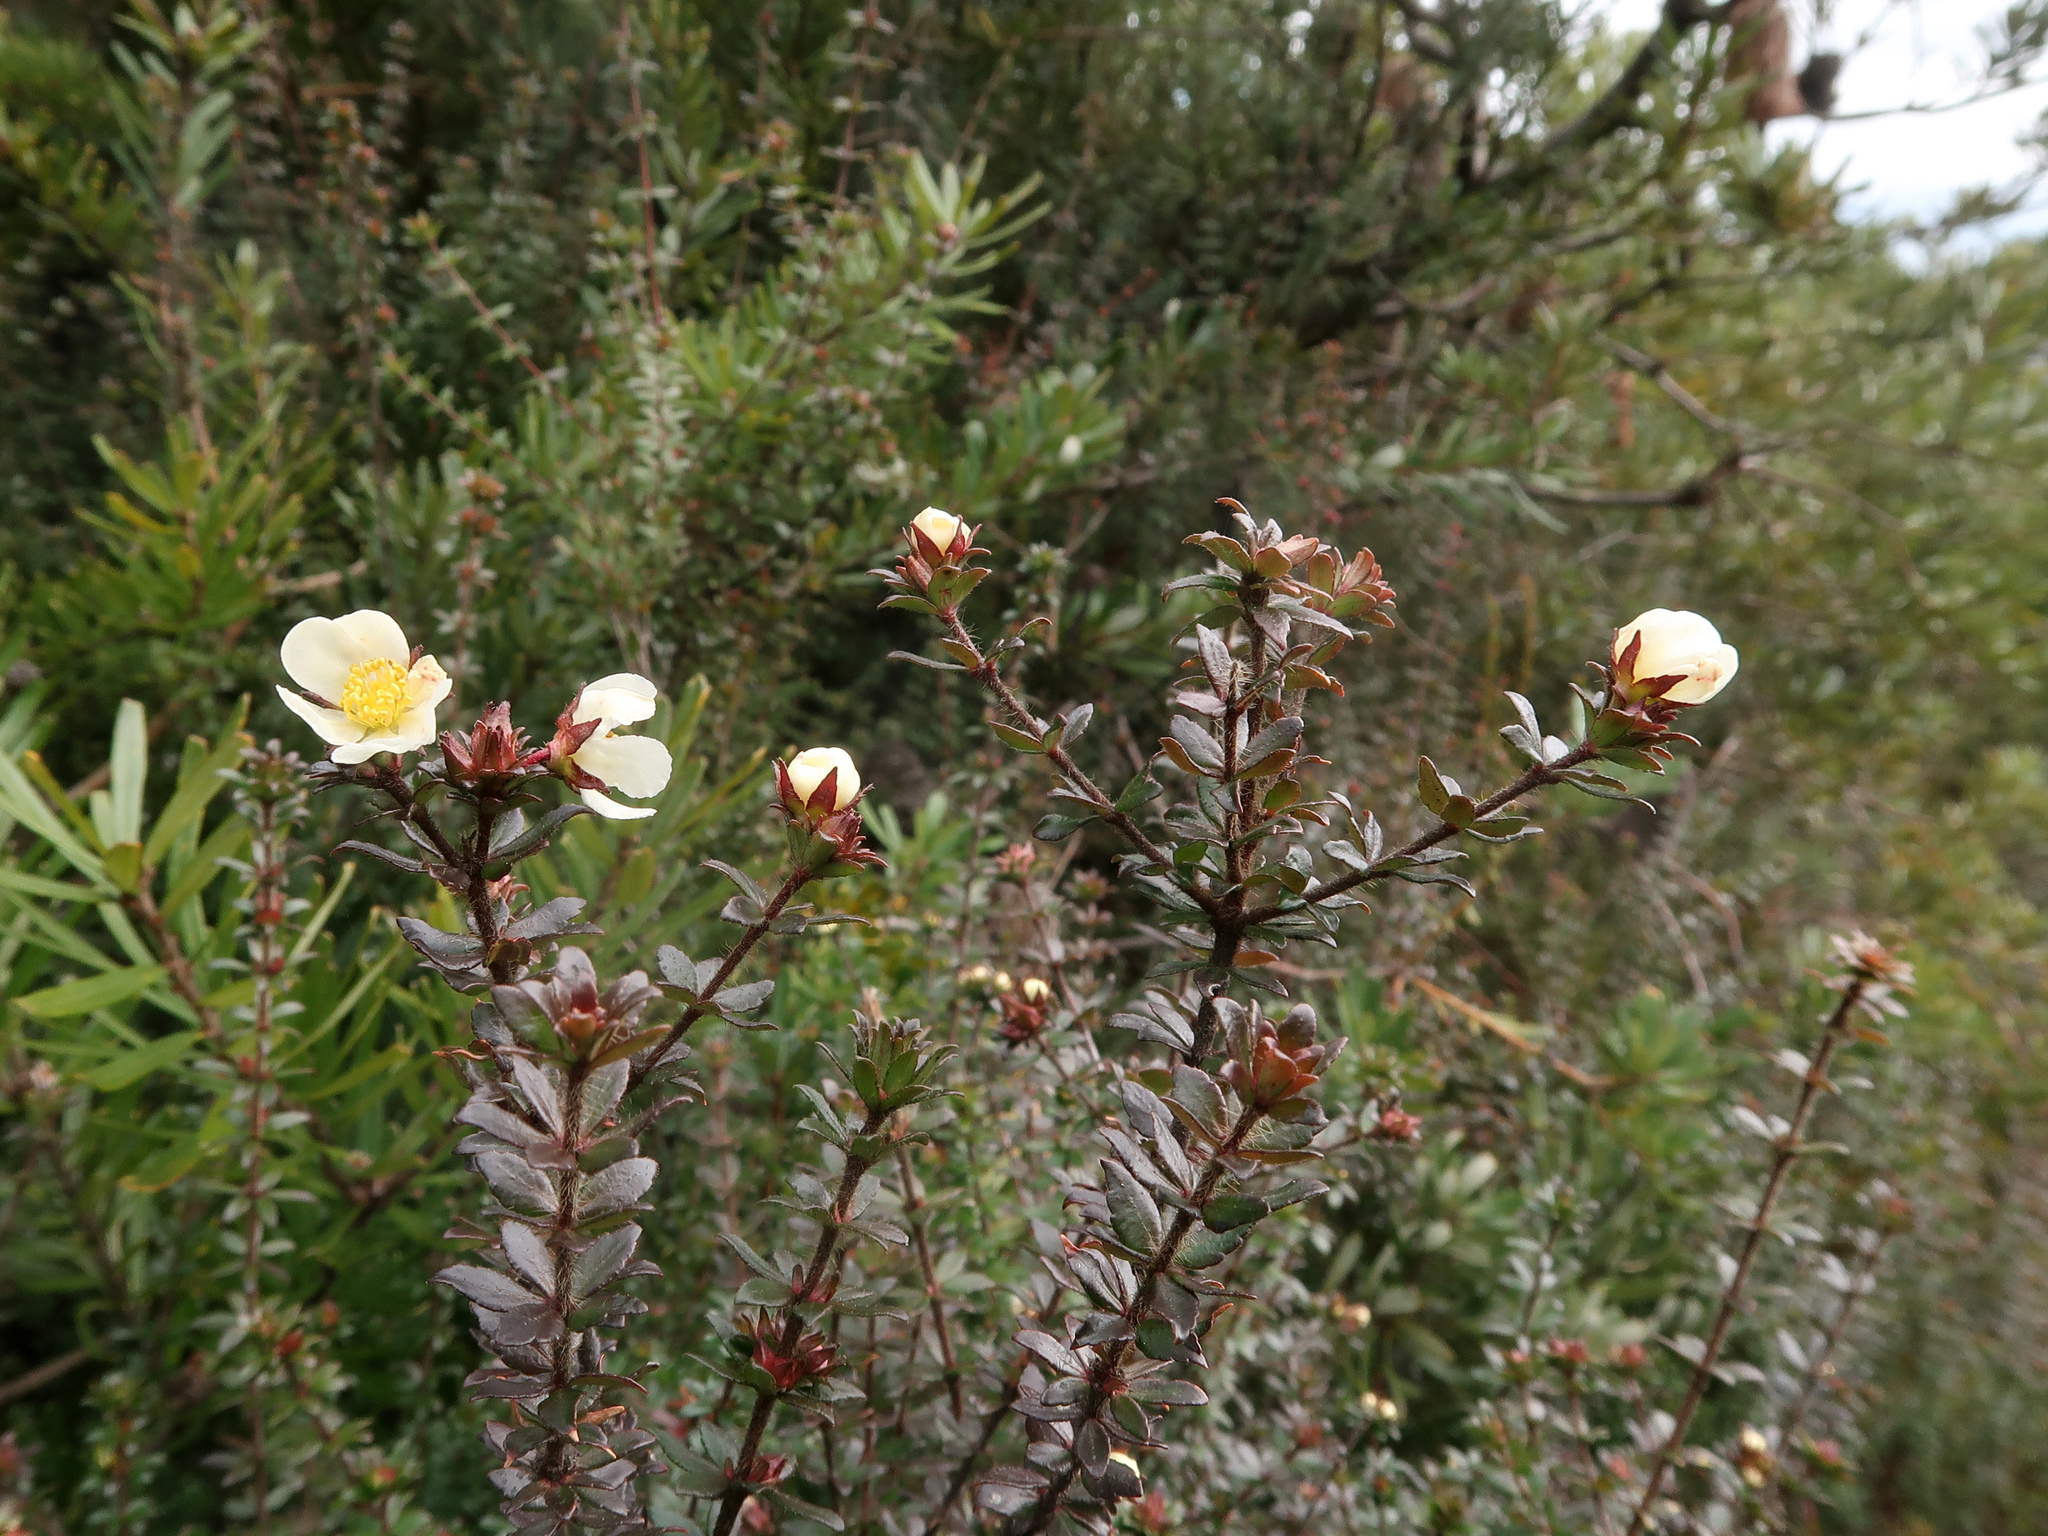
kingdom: Plantae
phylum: Tracheophyta
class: Magnoliopsida
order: Oxalidales
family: Cunoniaceae
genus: Bauera
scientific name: Bauera rubioides
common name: River-rose
